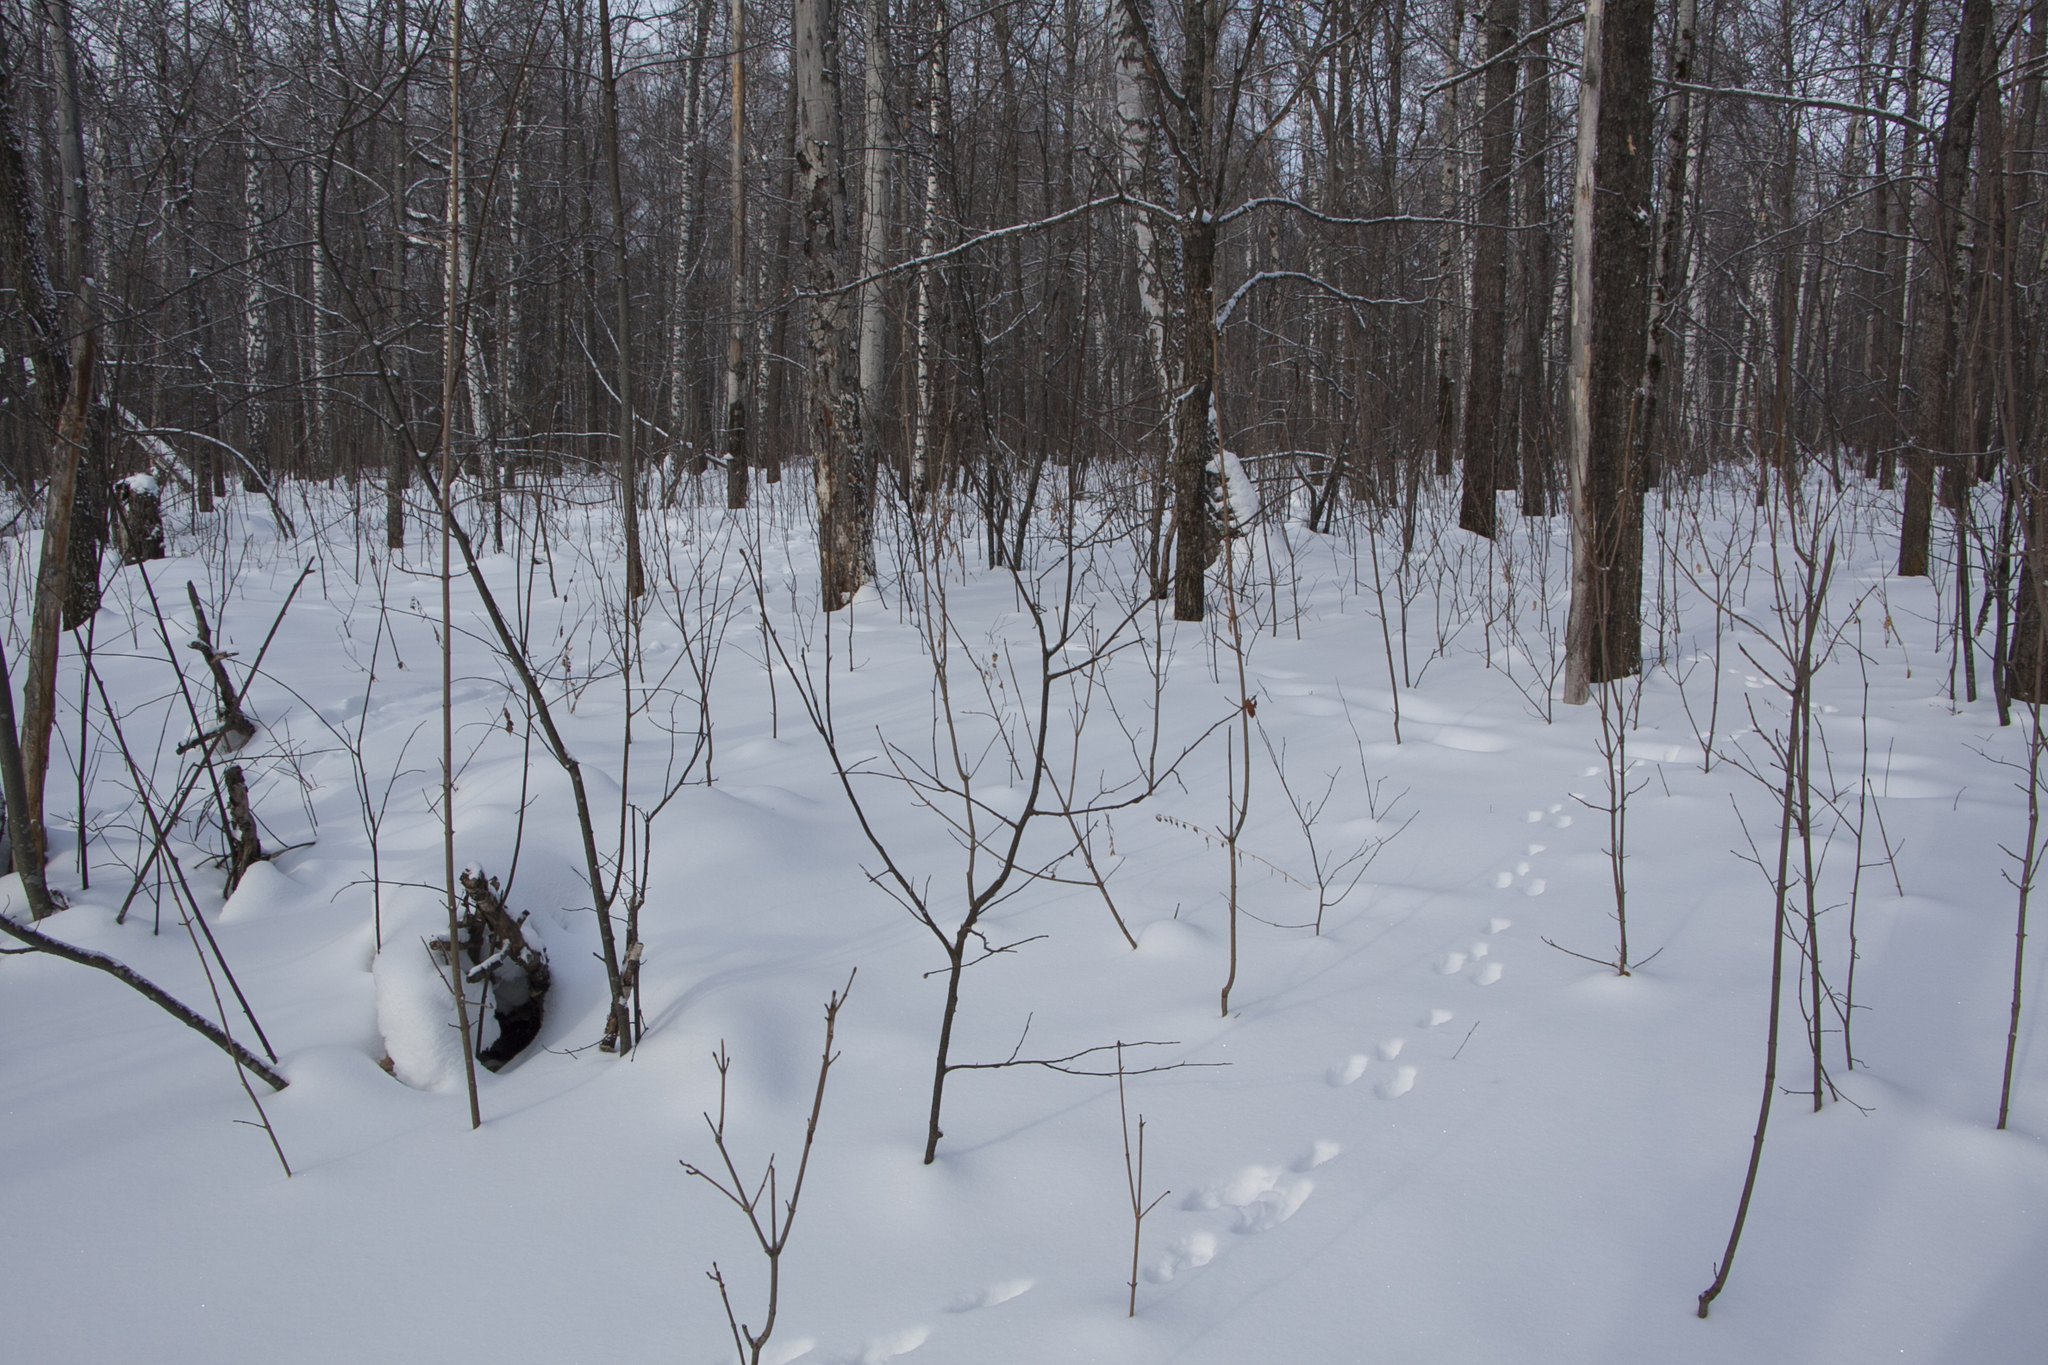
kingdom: Animalia
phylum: Chordata
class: Mammalia
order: Lagomorpha
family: Leporidae
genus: Lepus
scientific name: Lepus timidus
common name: Mountain hare
